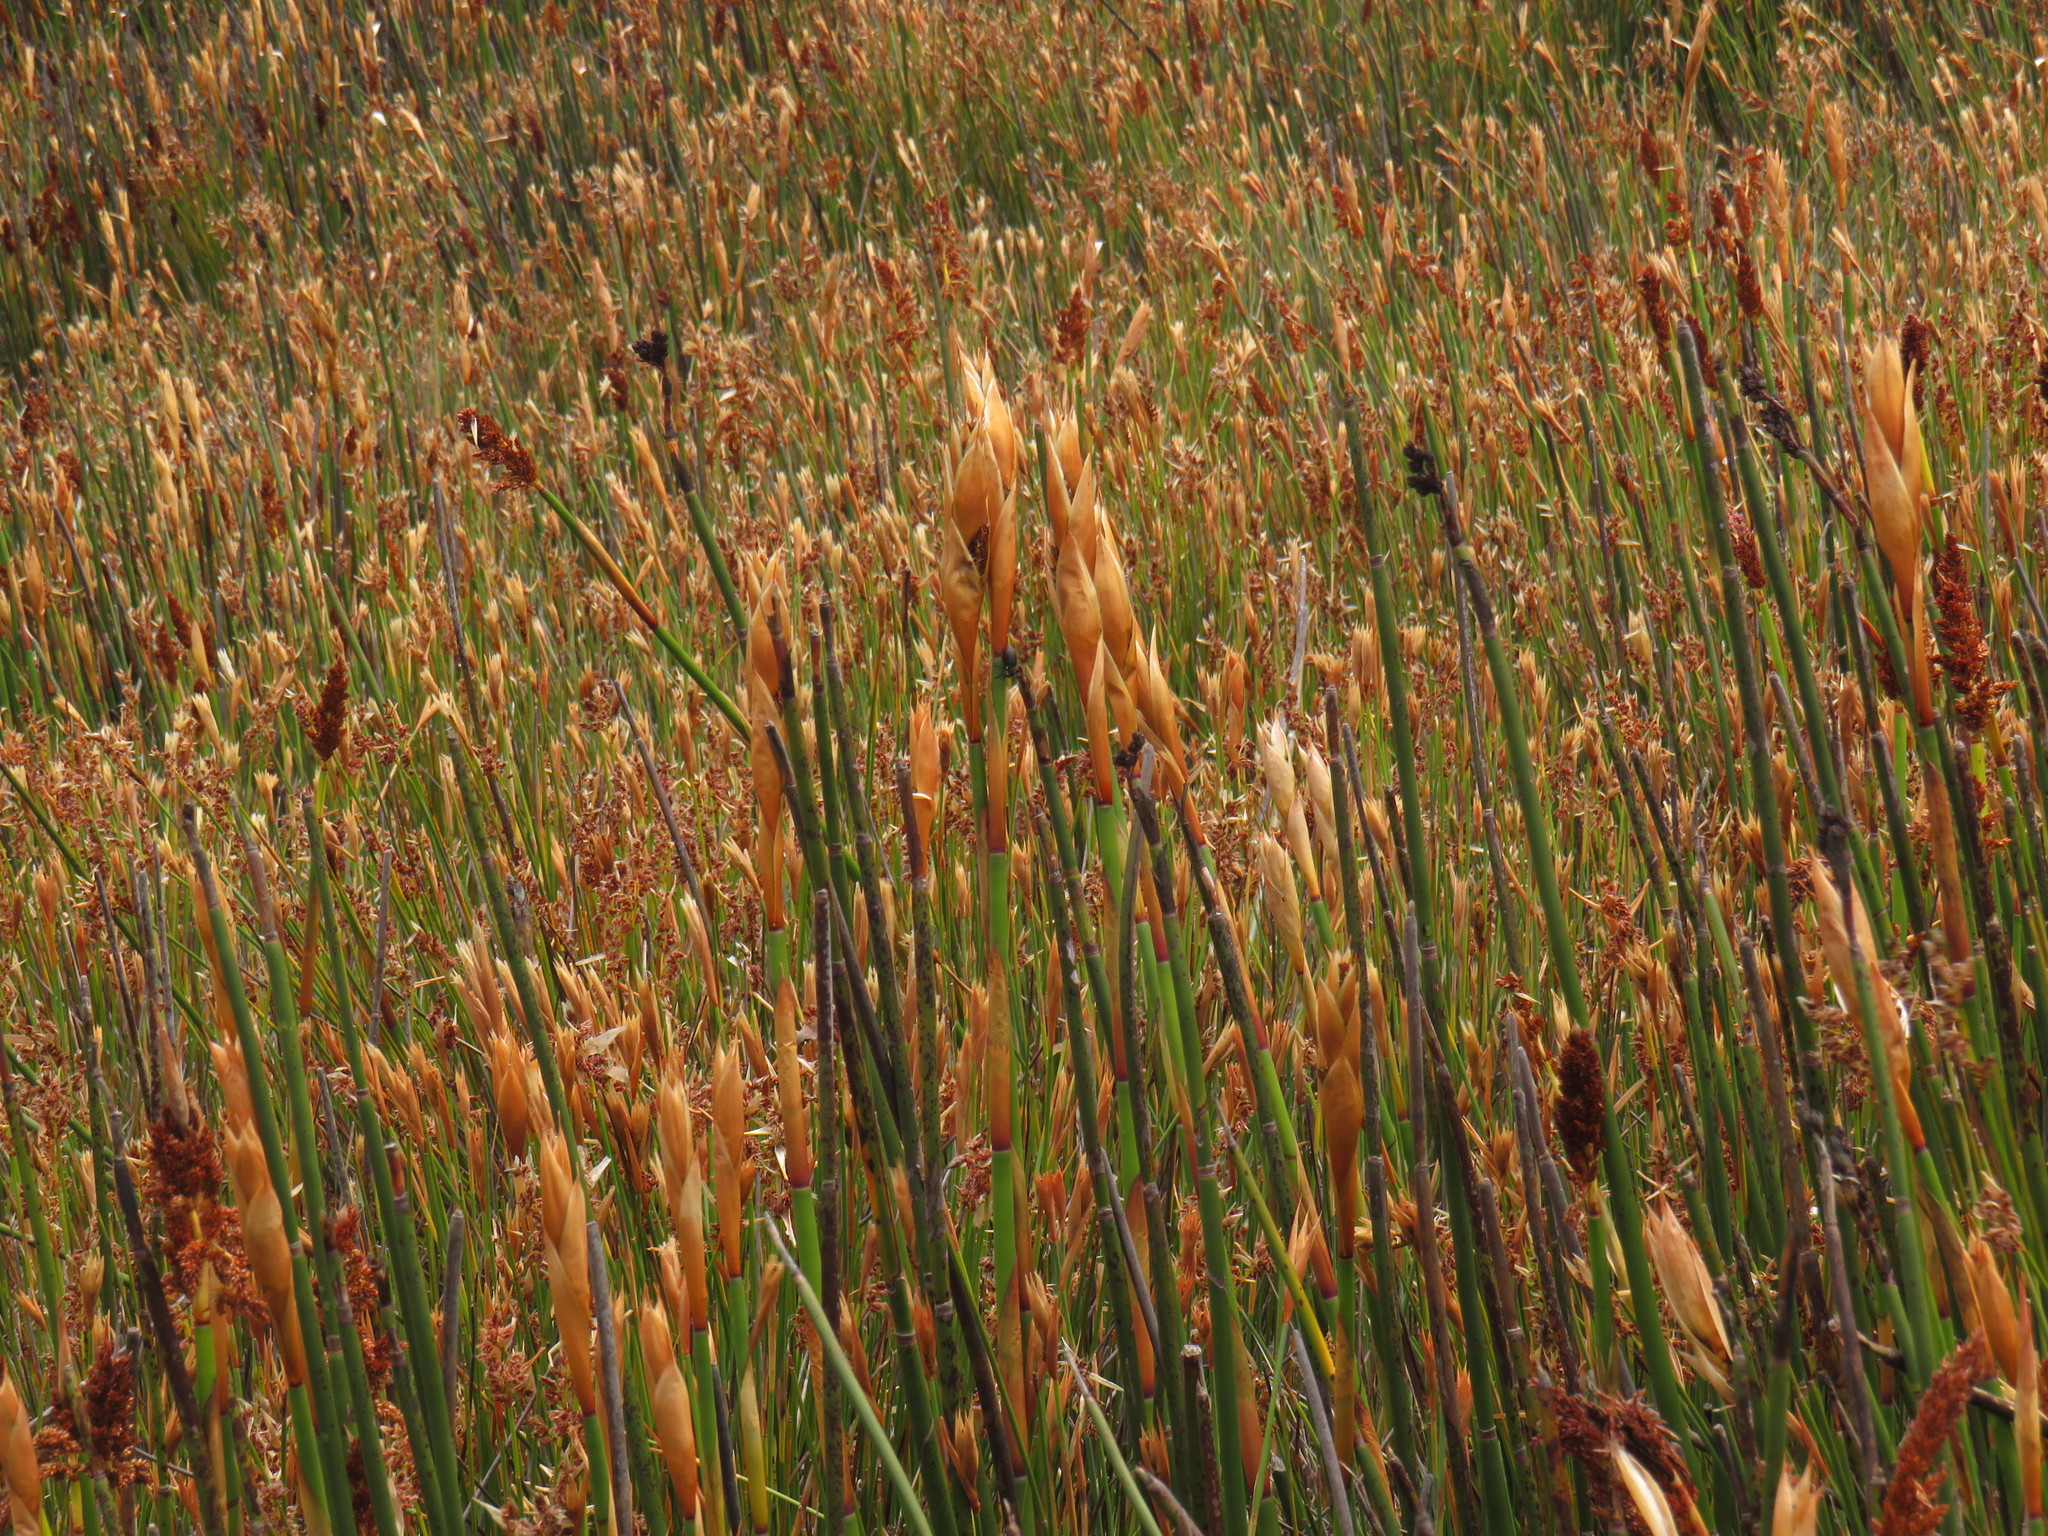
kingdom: Plantae
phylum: Tracheophyta
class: Liliopsida
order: Poales
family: Restionaceae
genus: Elegia
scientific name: Elegia mucronata
